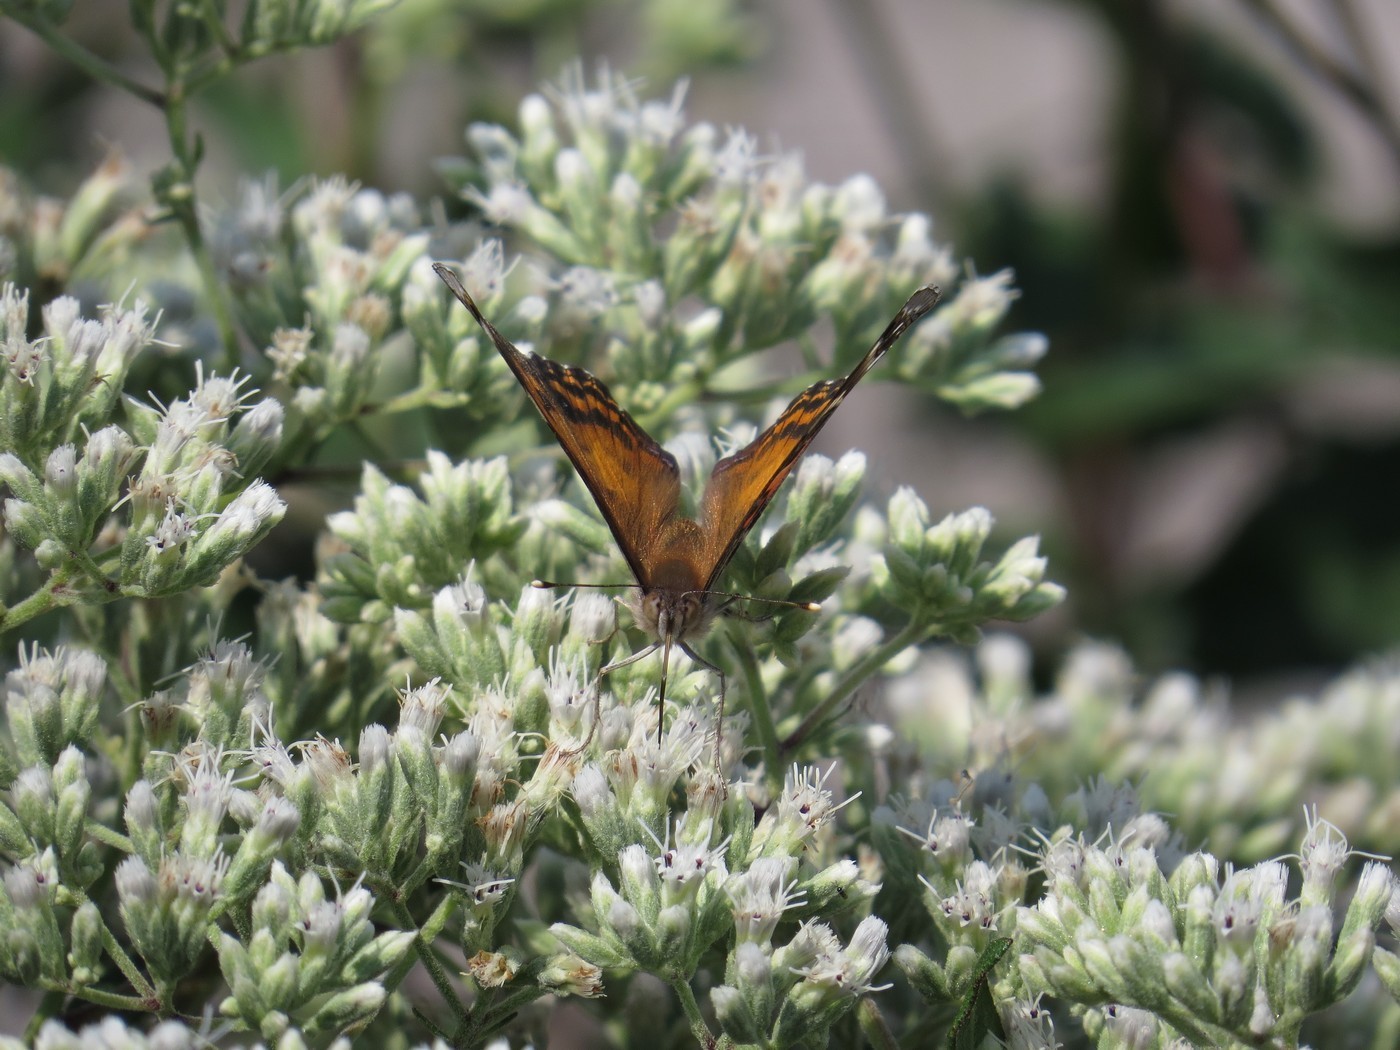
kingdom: Animalia
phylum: Arthropoda
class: Insecta
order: Lepidoptera
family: Nymphalidae
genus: Vanessa
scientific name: Vanessa virginiensis
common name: American lady
